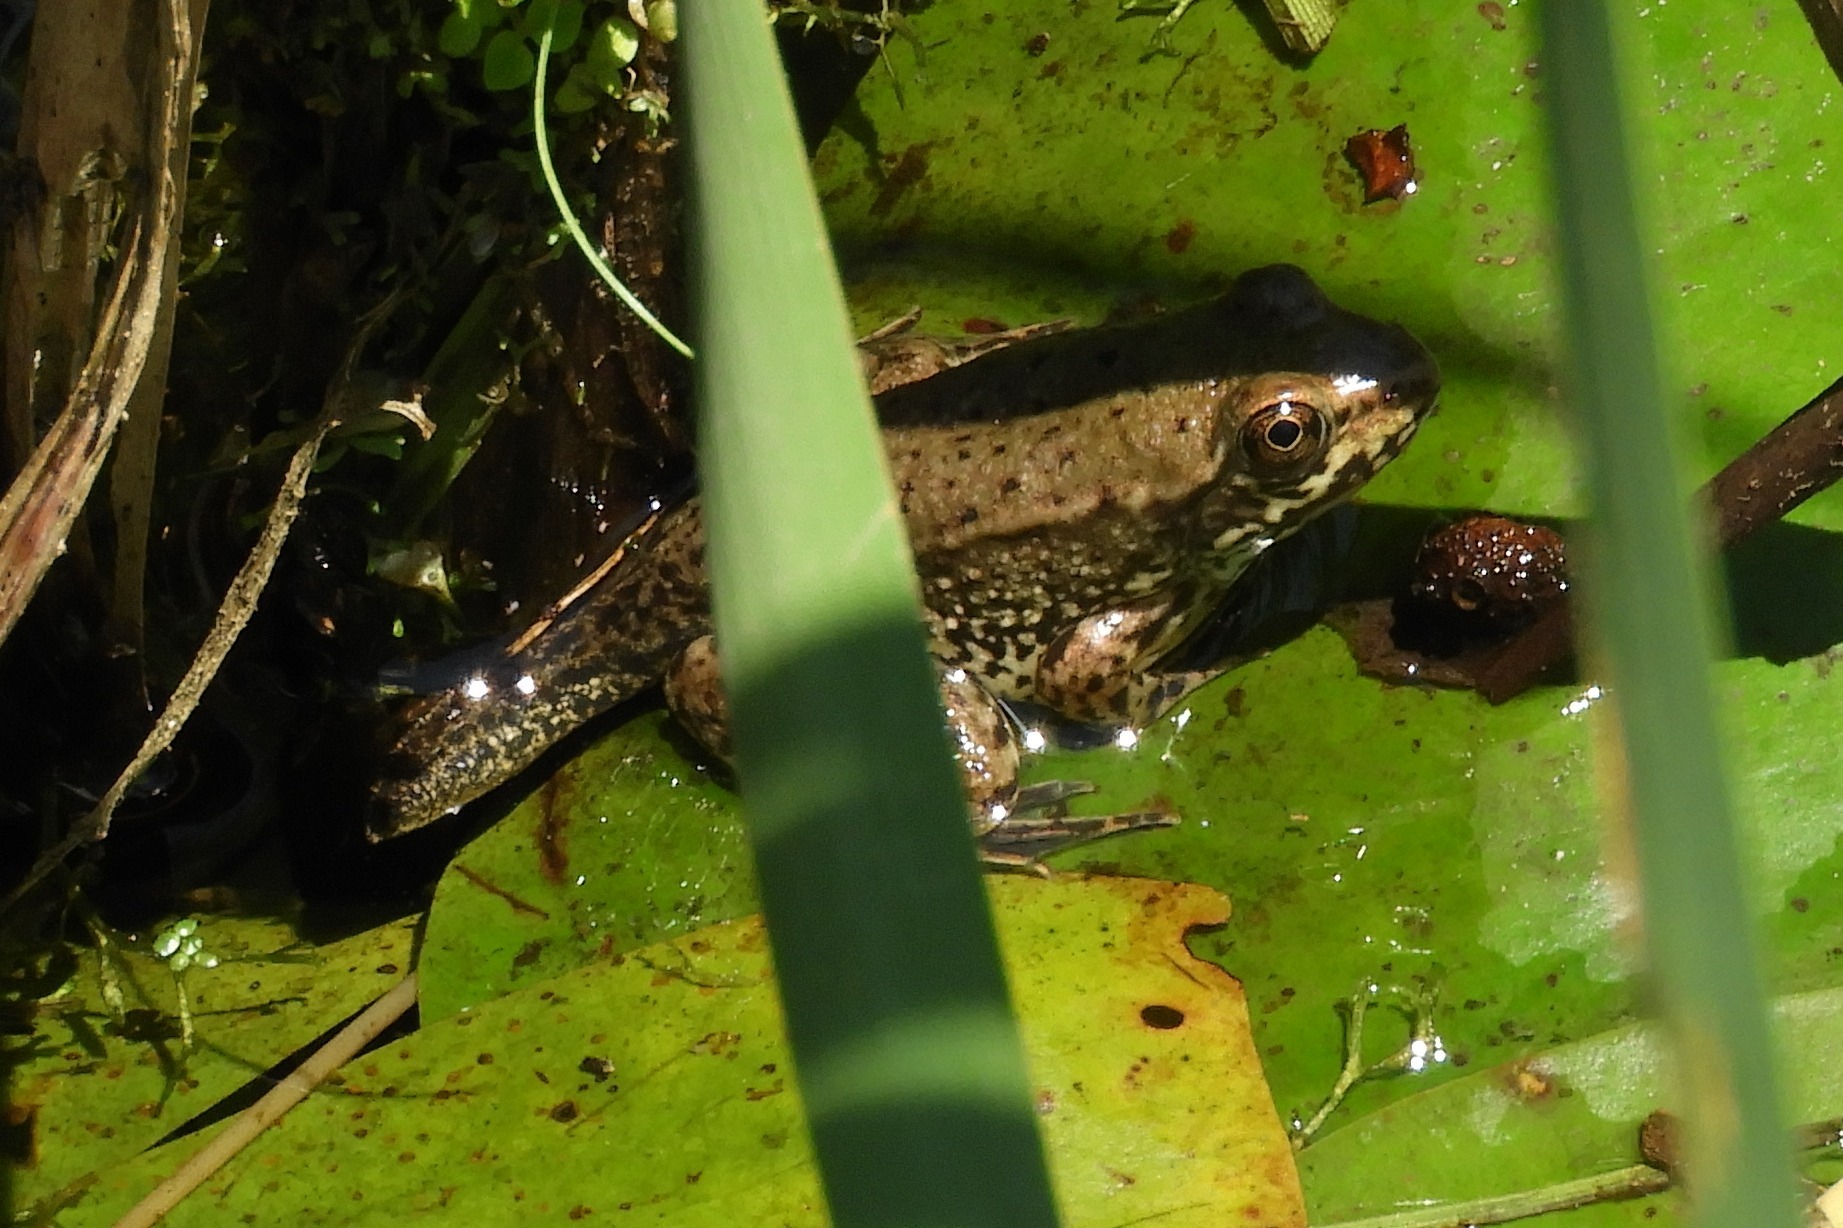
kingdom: Animalia
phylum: Chordata
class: Amphibia
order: Anura
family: Ranidae
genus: Lithobates
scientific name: Lithobates clamitans
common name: Green frog
